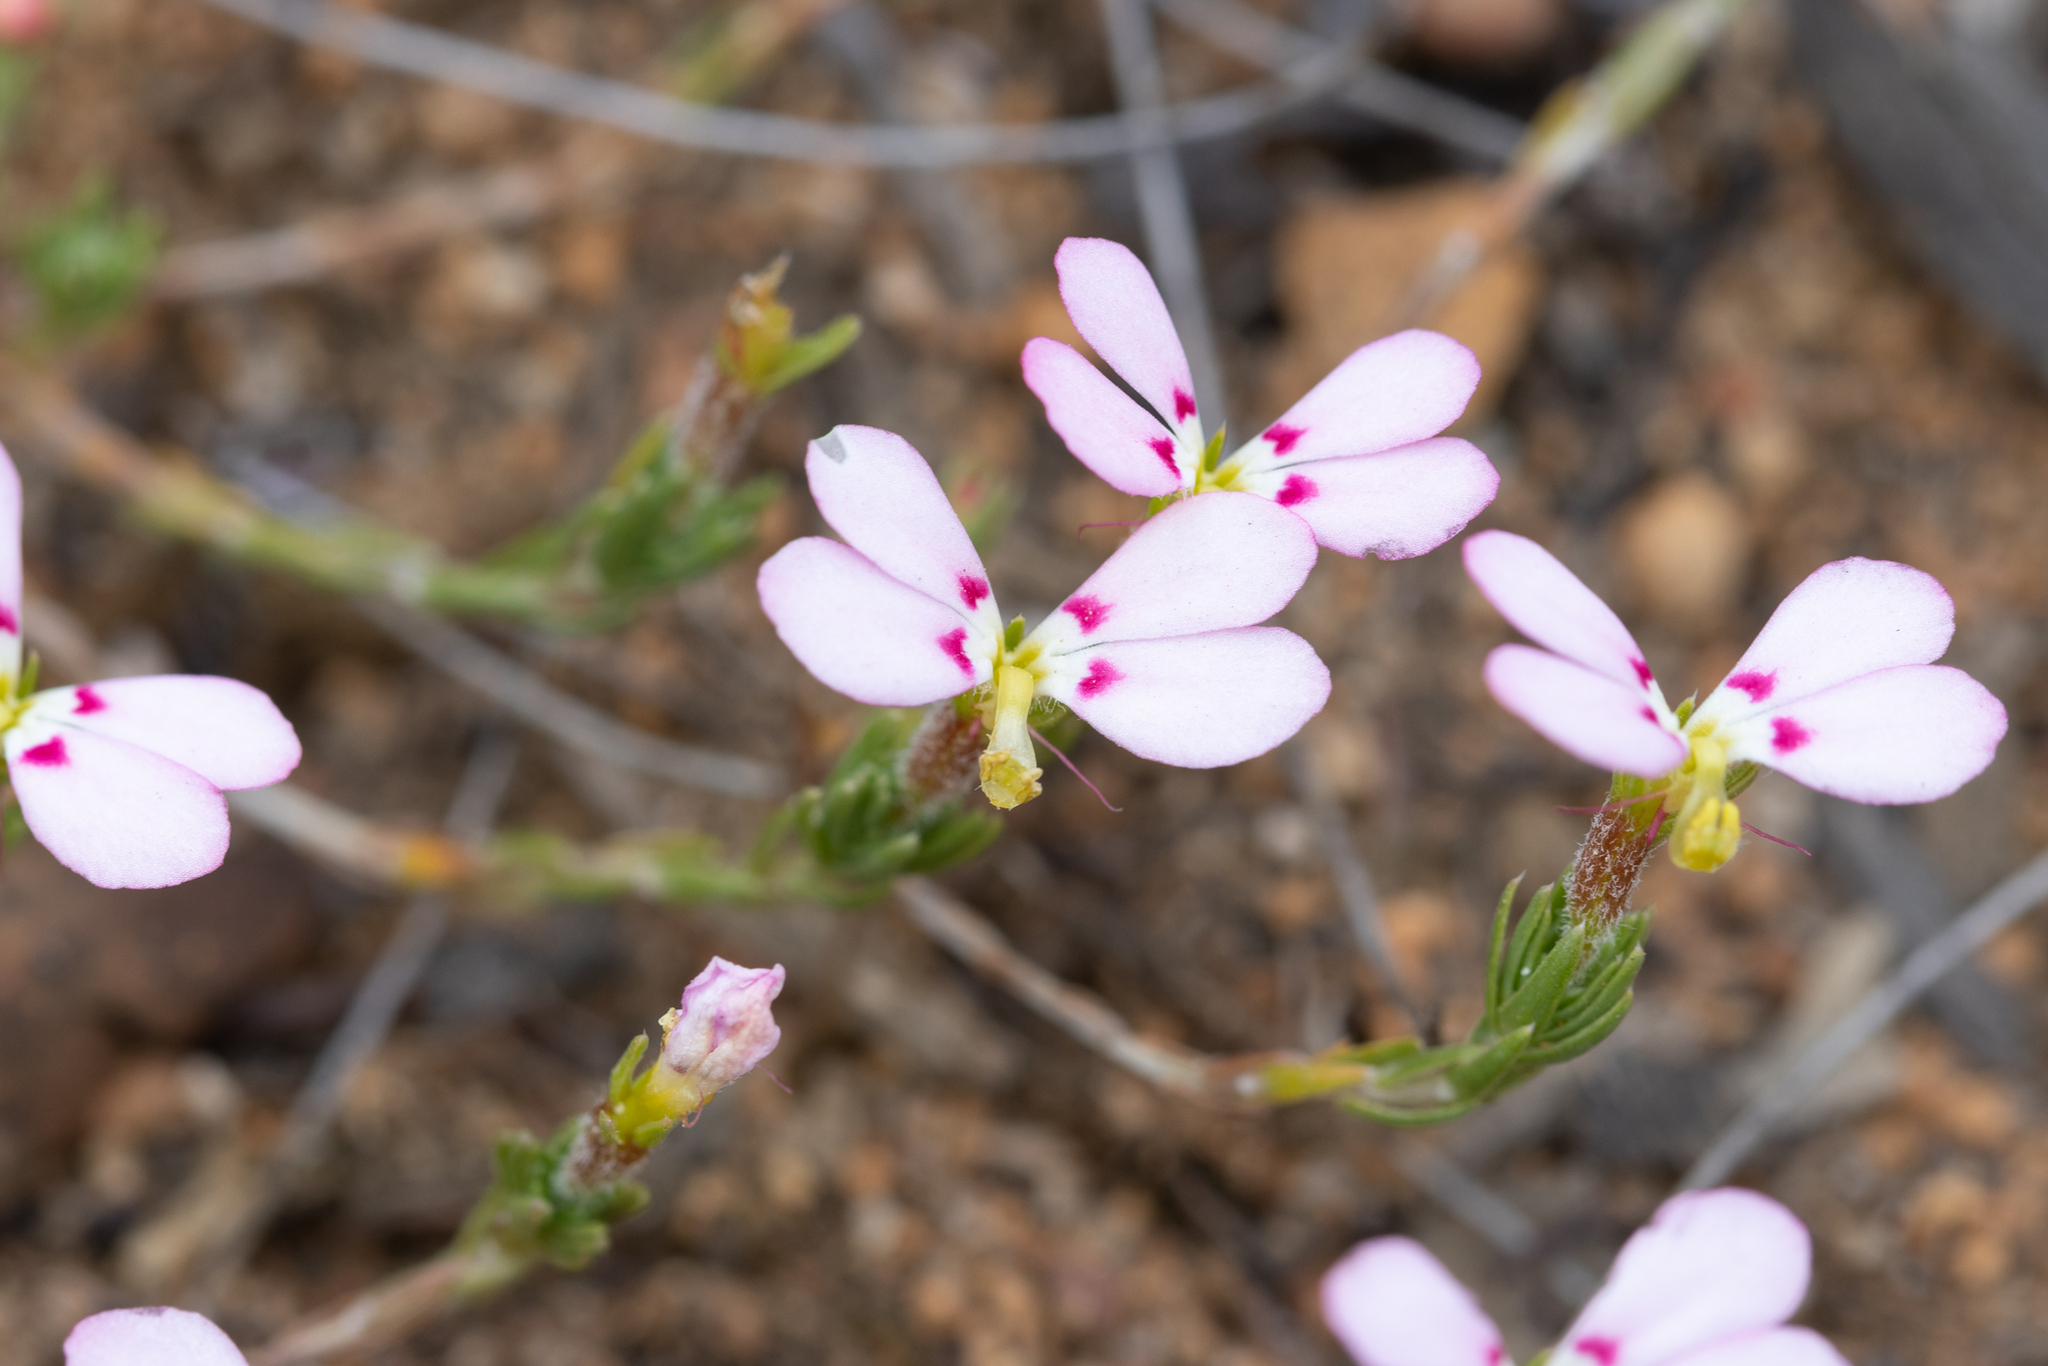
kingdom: Plantae
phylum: Tracheophyta
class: Magnoliopsida
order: Asterales
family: Stylidiaceae
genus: Stylidium
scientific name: Stylidium perula
